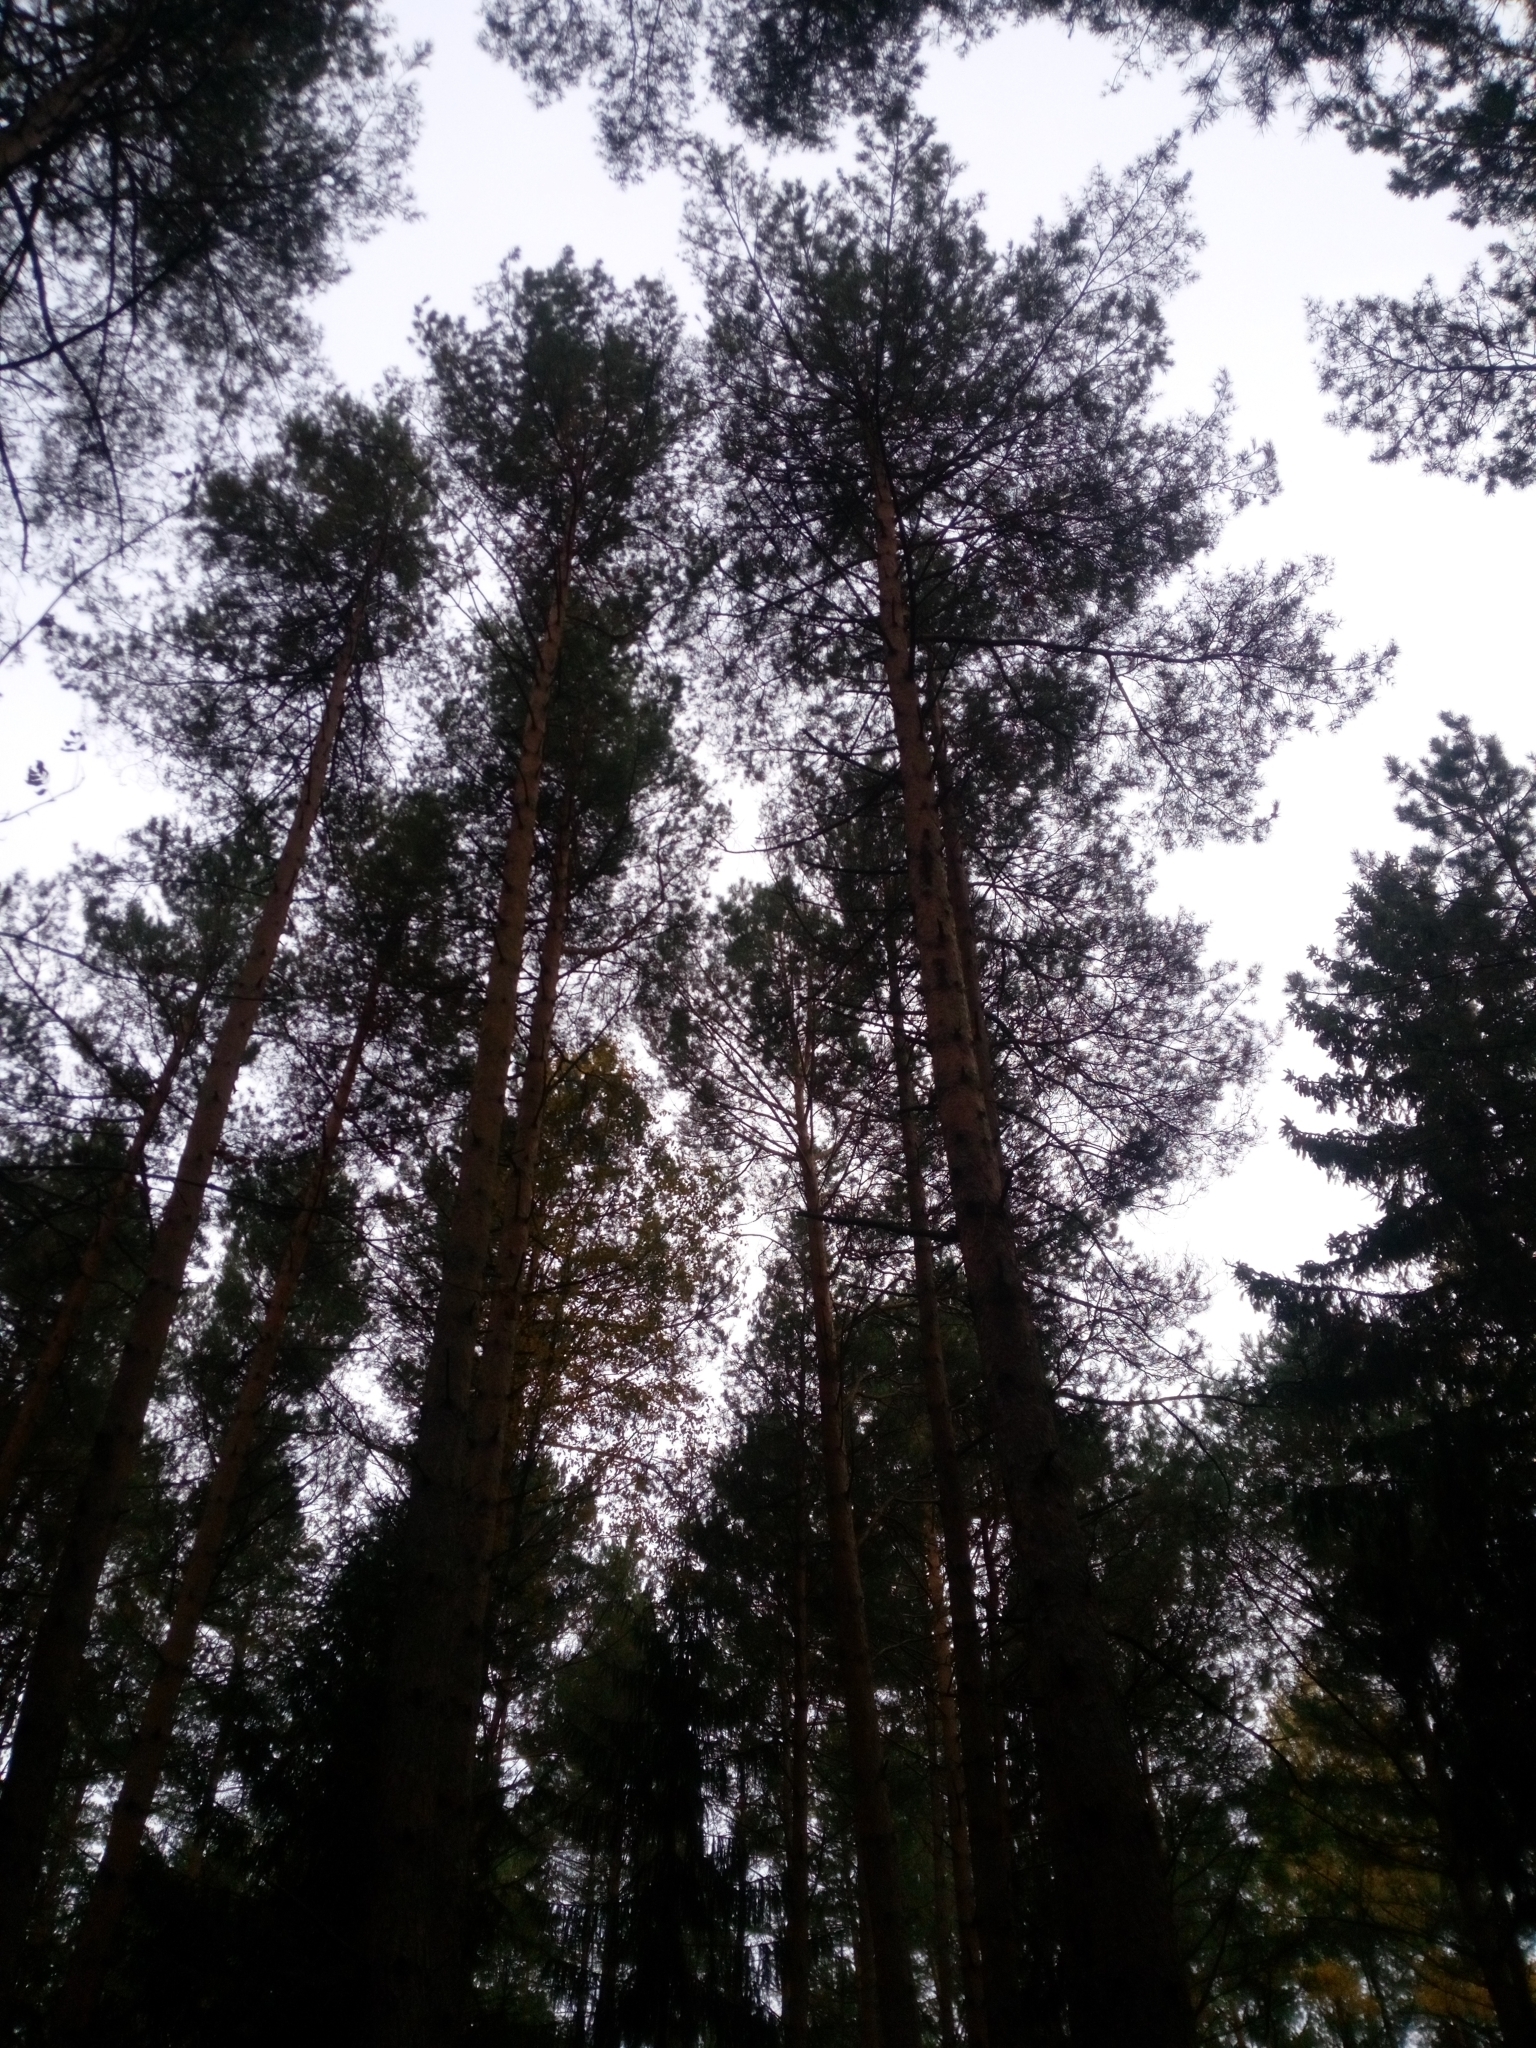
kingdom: Plantae
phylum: Tracheophyta
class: Pinopsida
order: Pinales
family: Pinaceae
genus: Pinus
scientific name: Pinus sylvestris
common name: Scots pine
